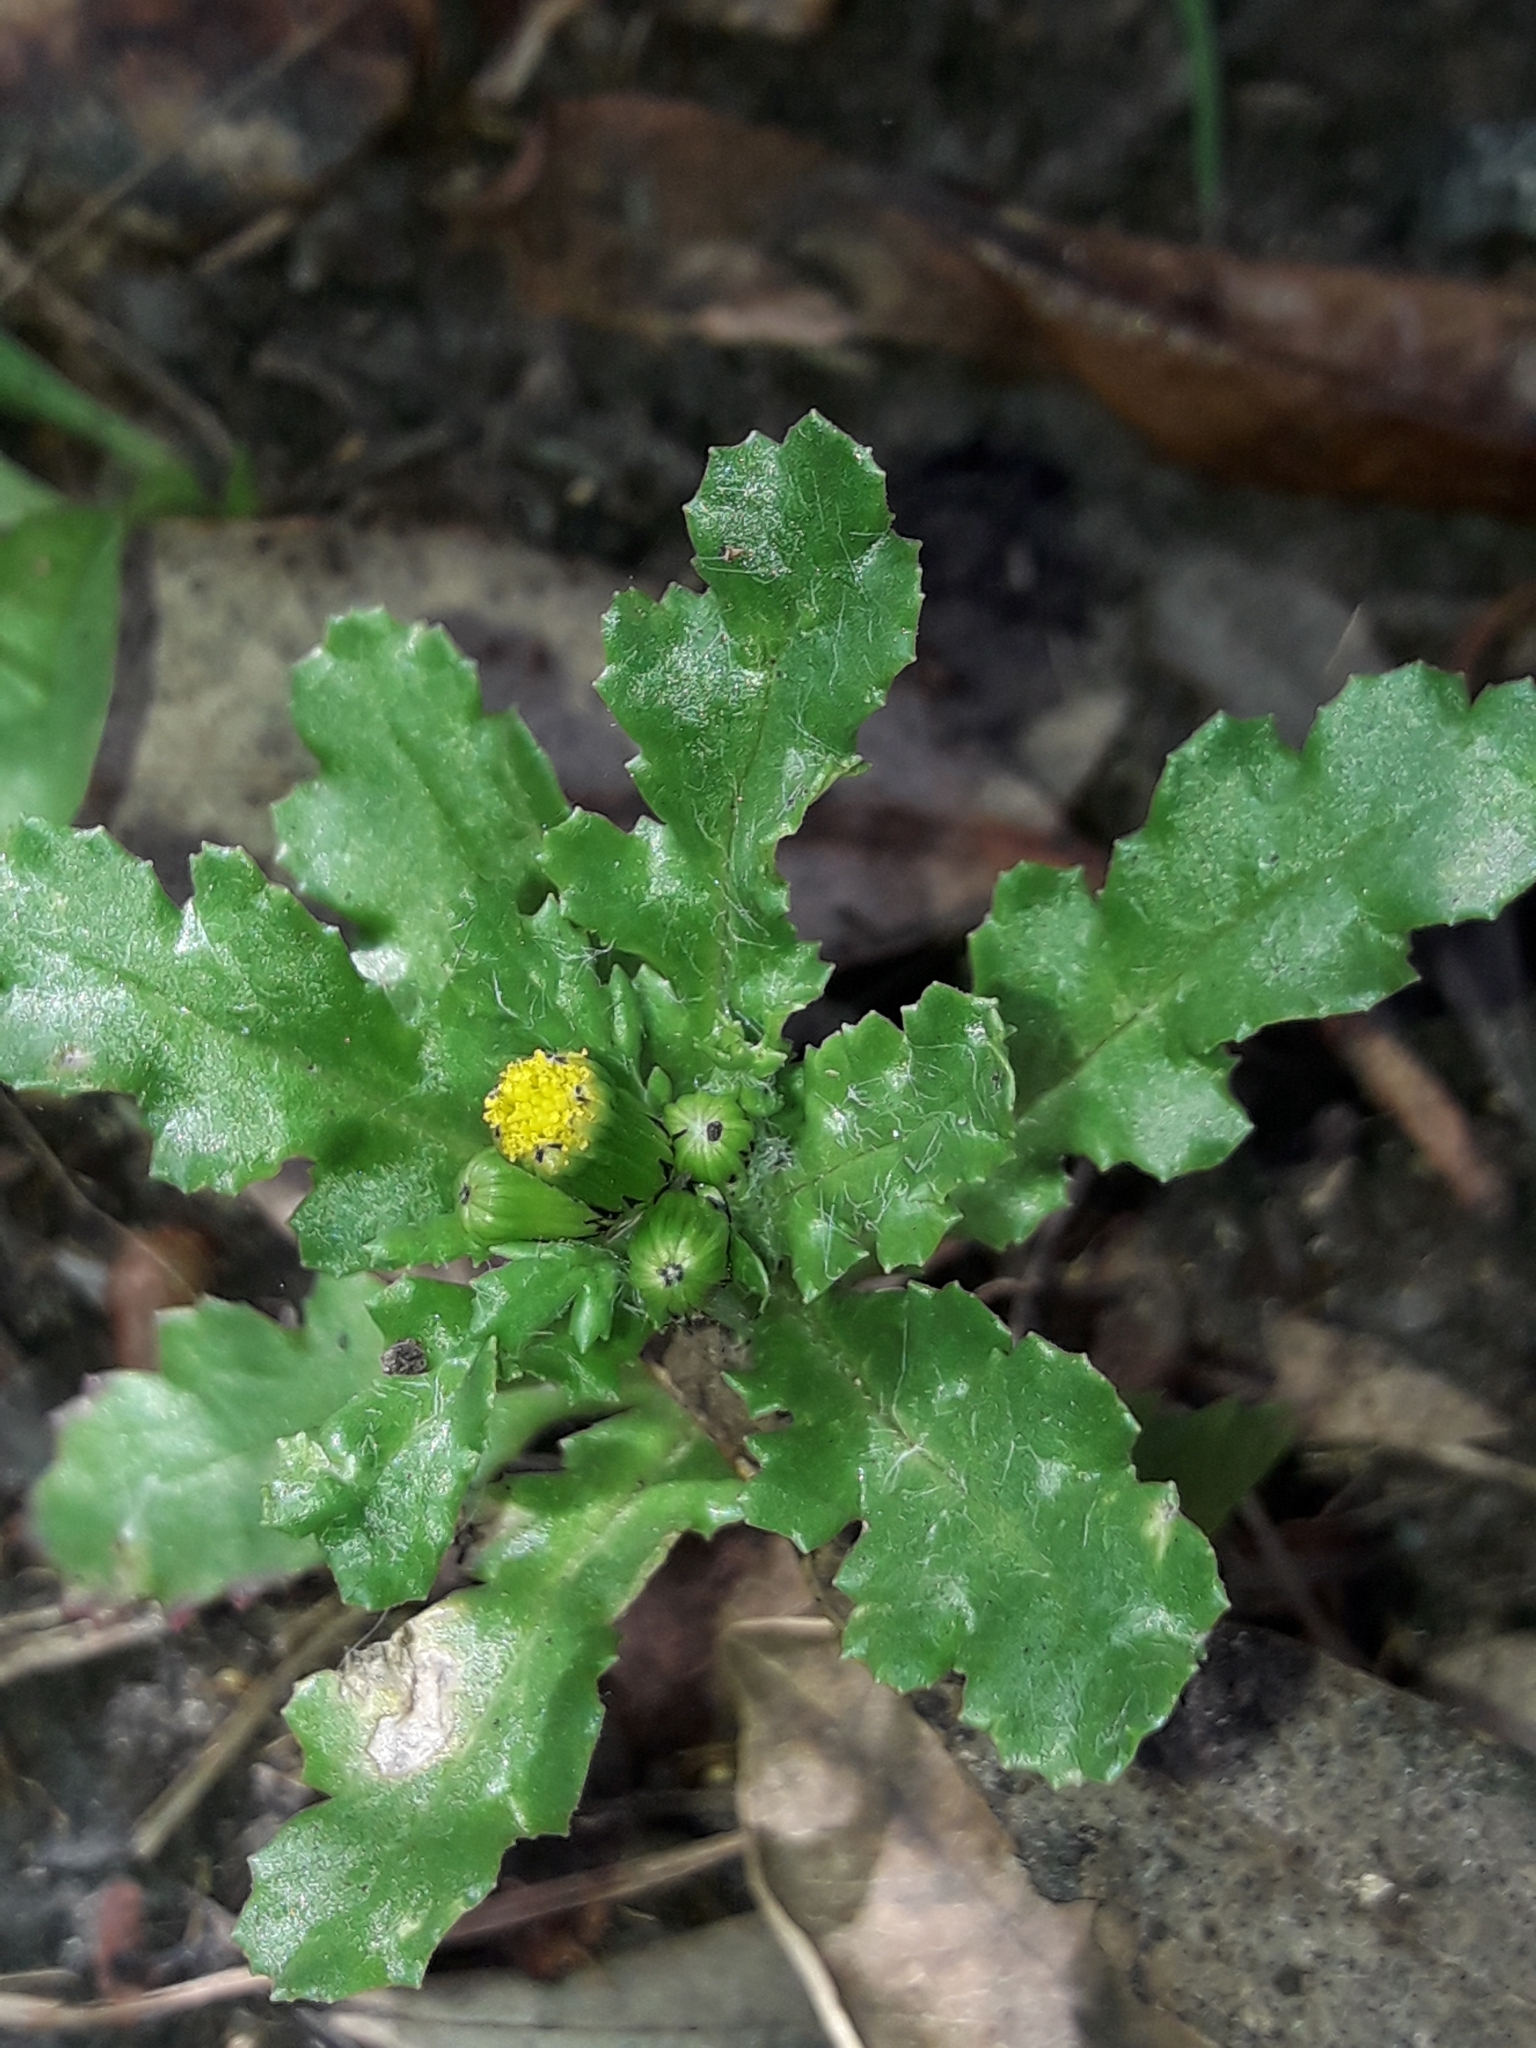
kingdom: Plantae
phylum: Tracheophyta
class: Magnoliopsida
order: Asterales
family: Asteraceae
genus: Senecio
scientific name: Senecio vulgaris
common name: Old-man-in-the-spring
